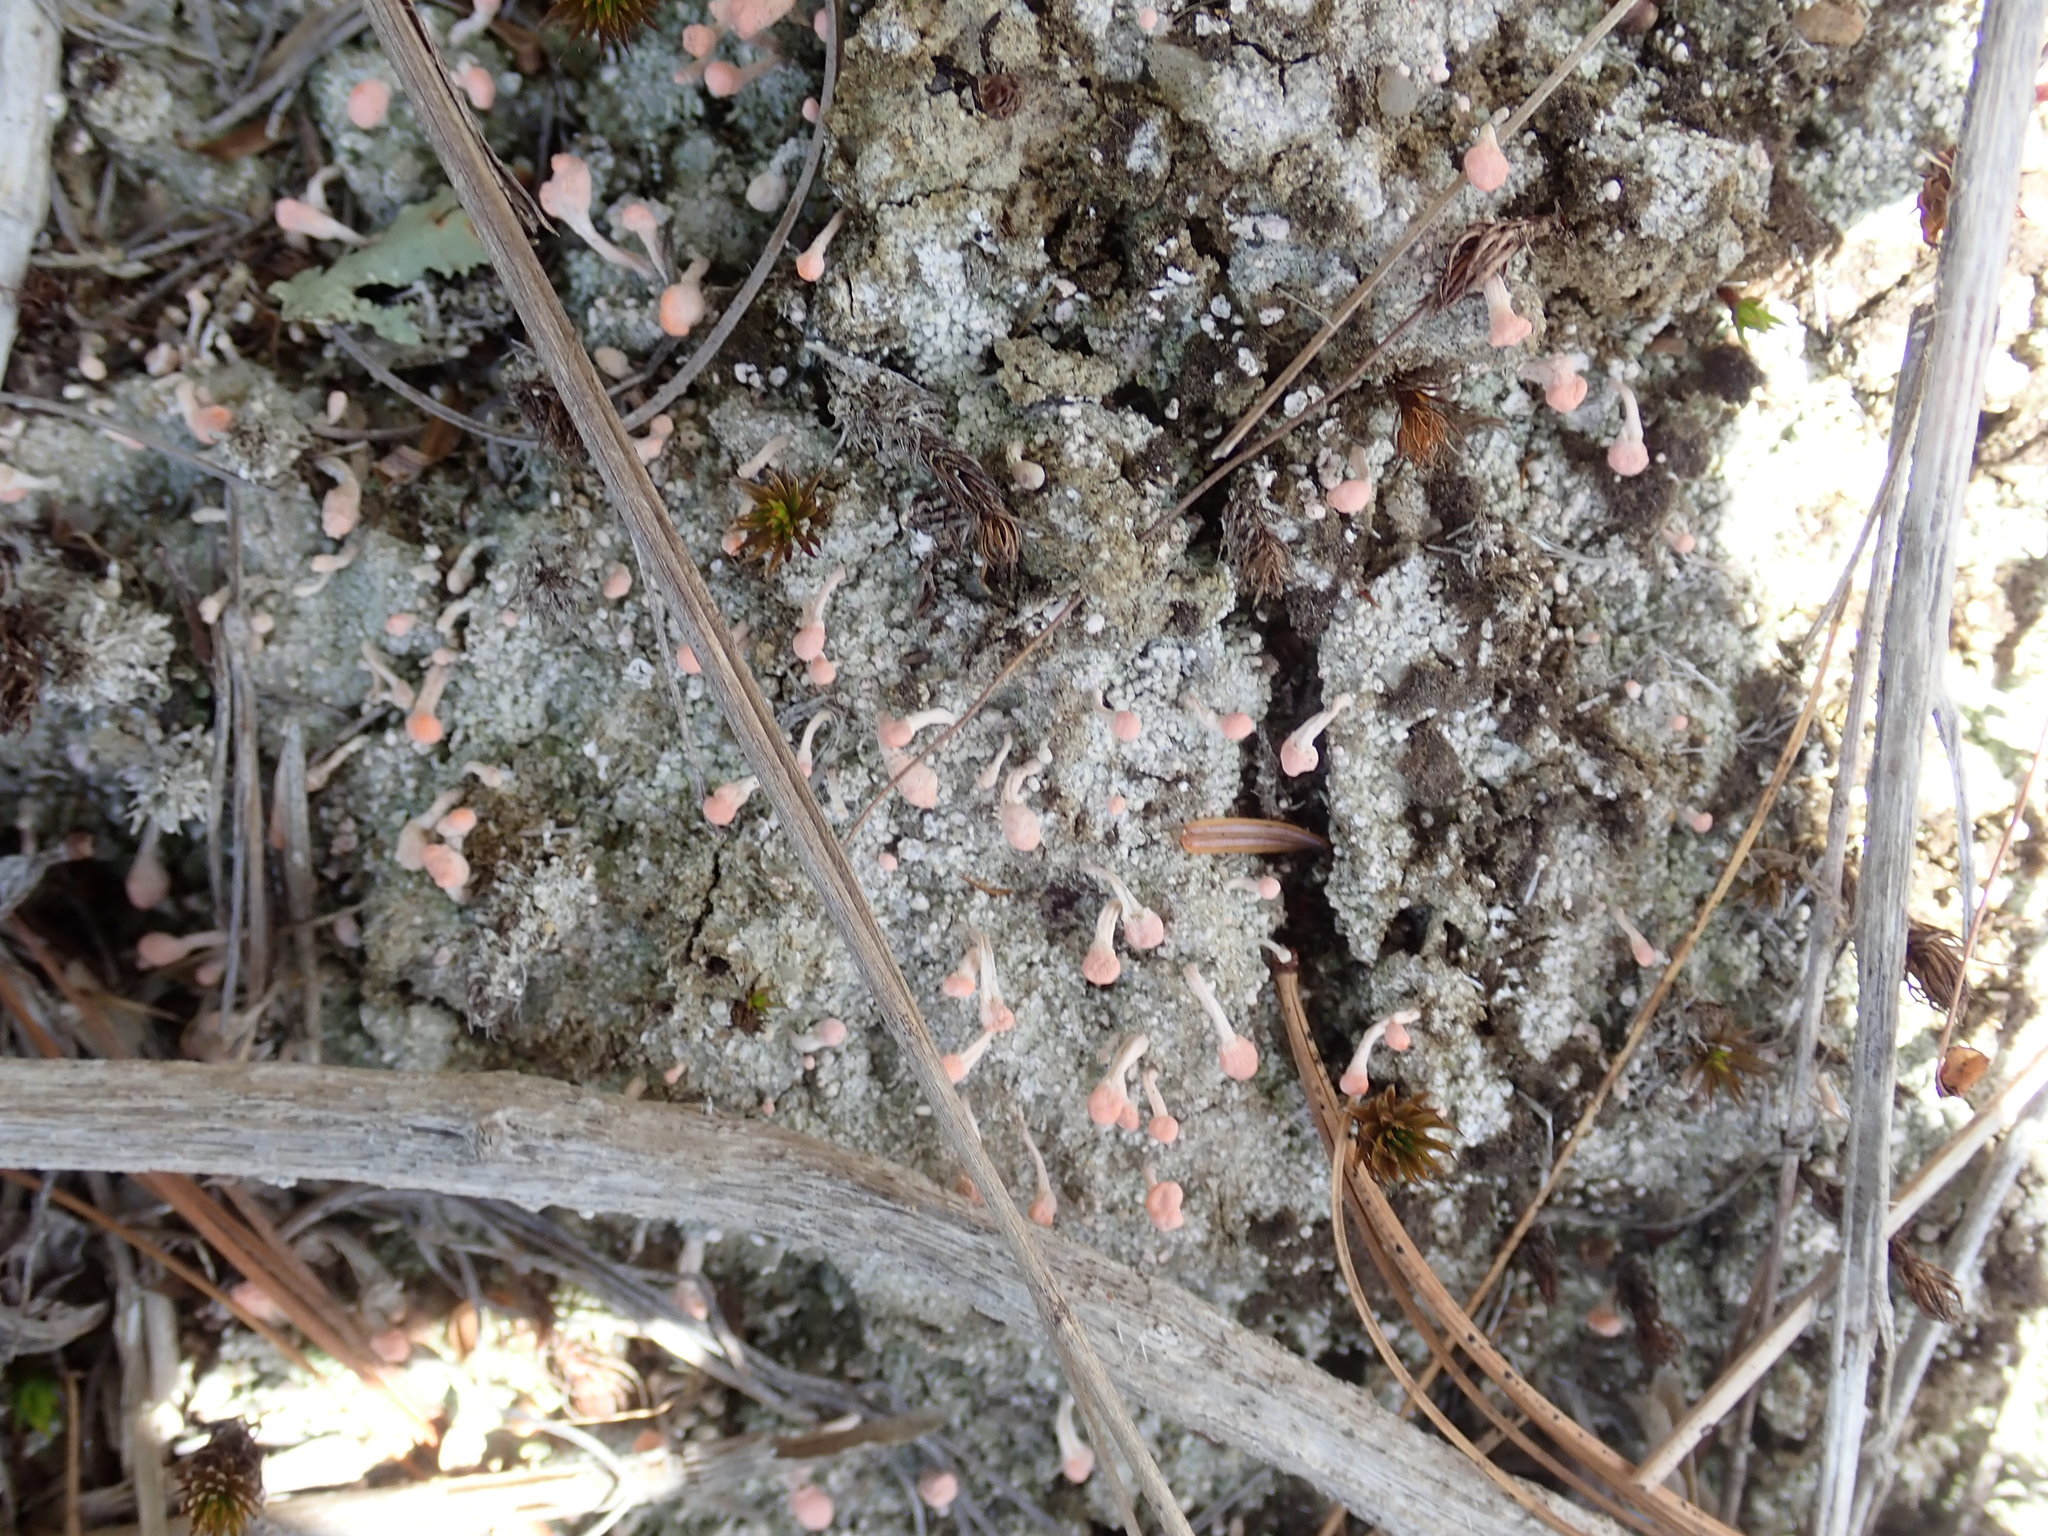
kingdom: Fungi
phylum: Ascomycota
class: Lecanoromycetes
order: Pertusariales
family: Icmadophilaceae
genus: Dibaeis
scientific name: Dibaeis baeomyces
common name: Pink earth lichen
